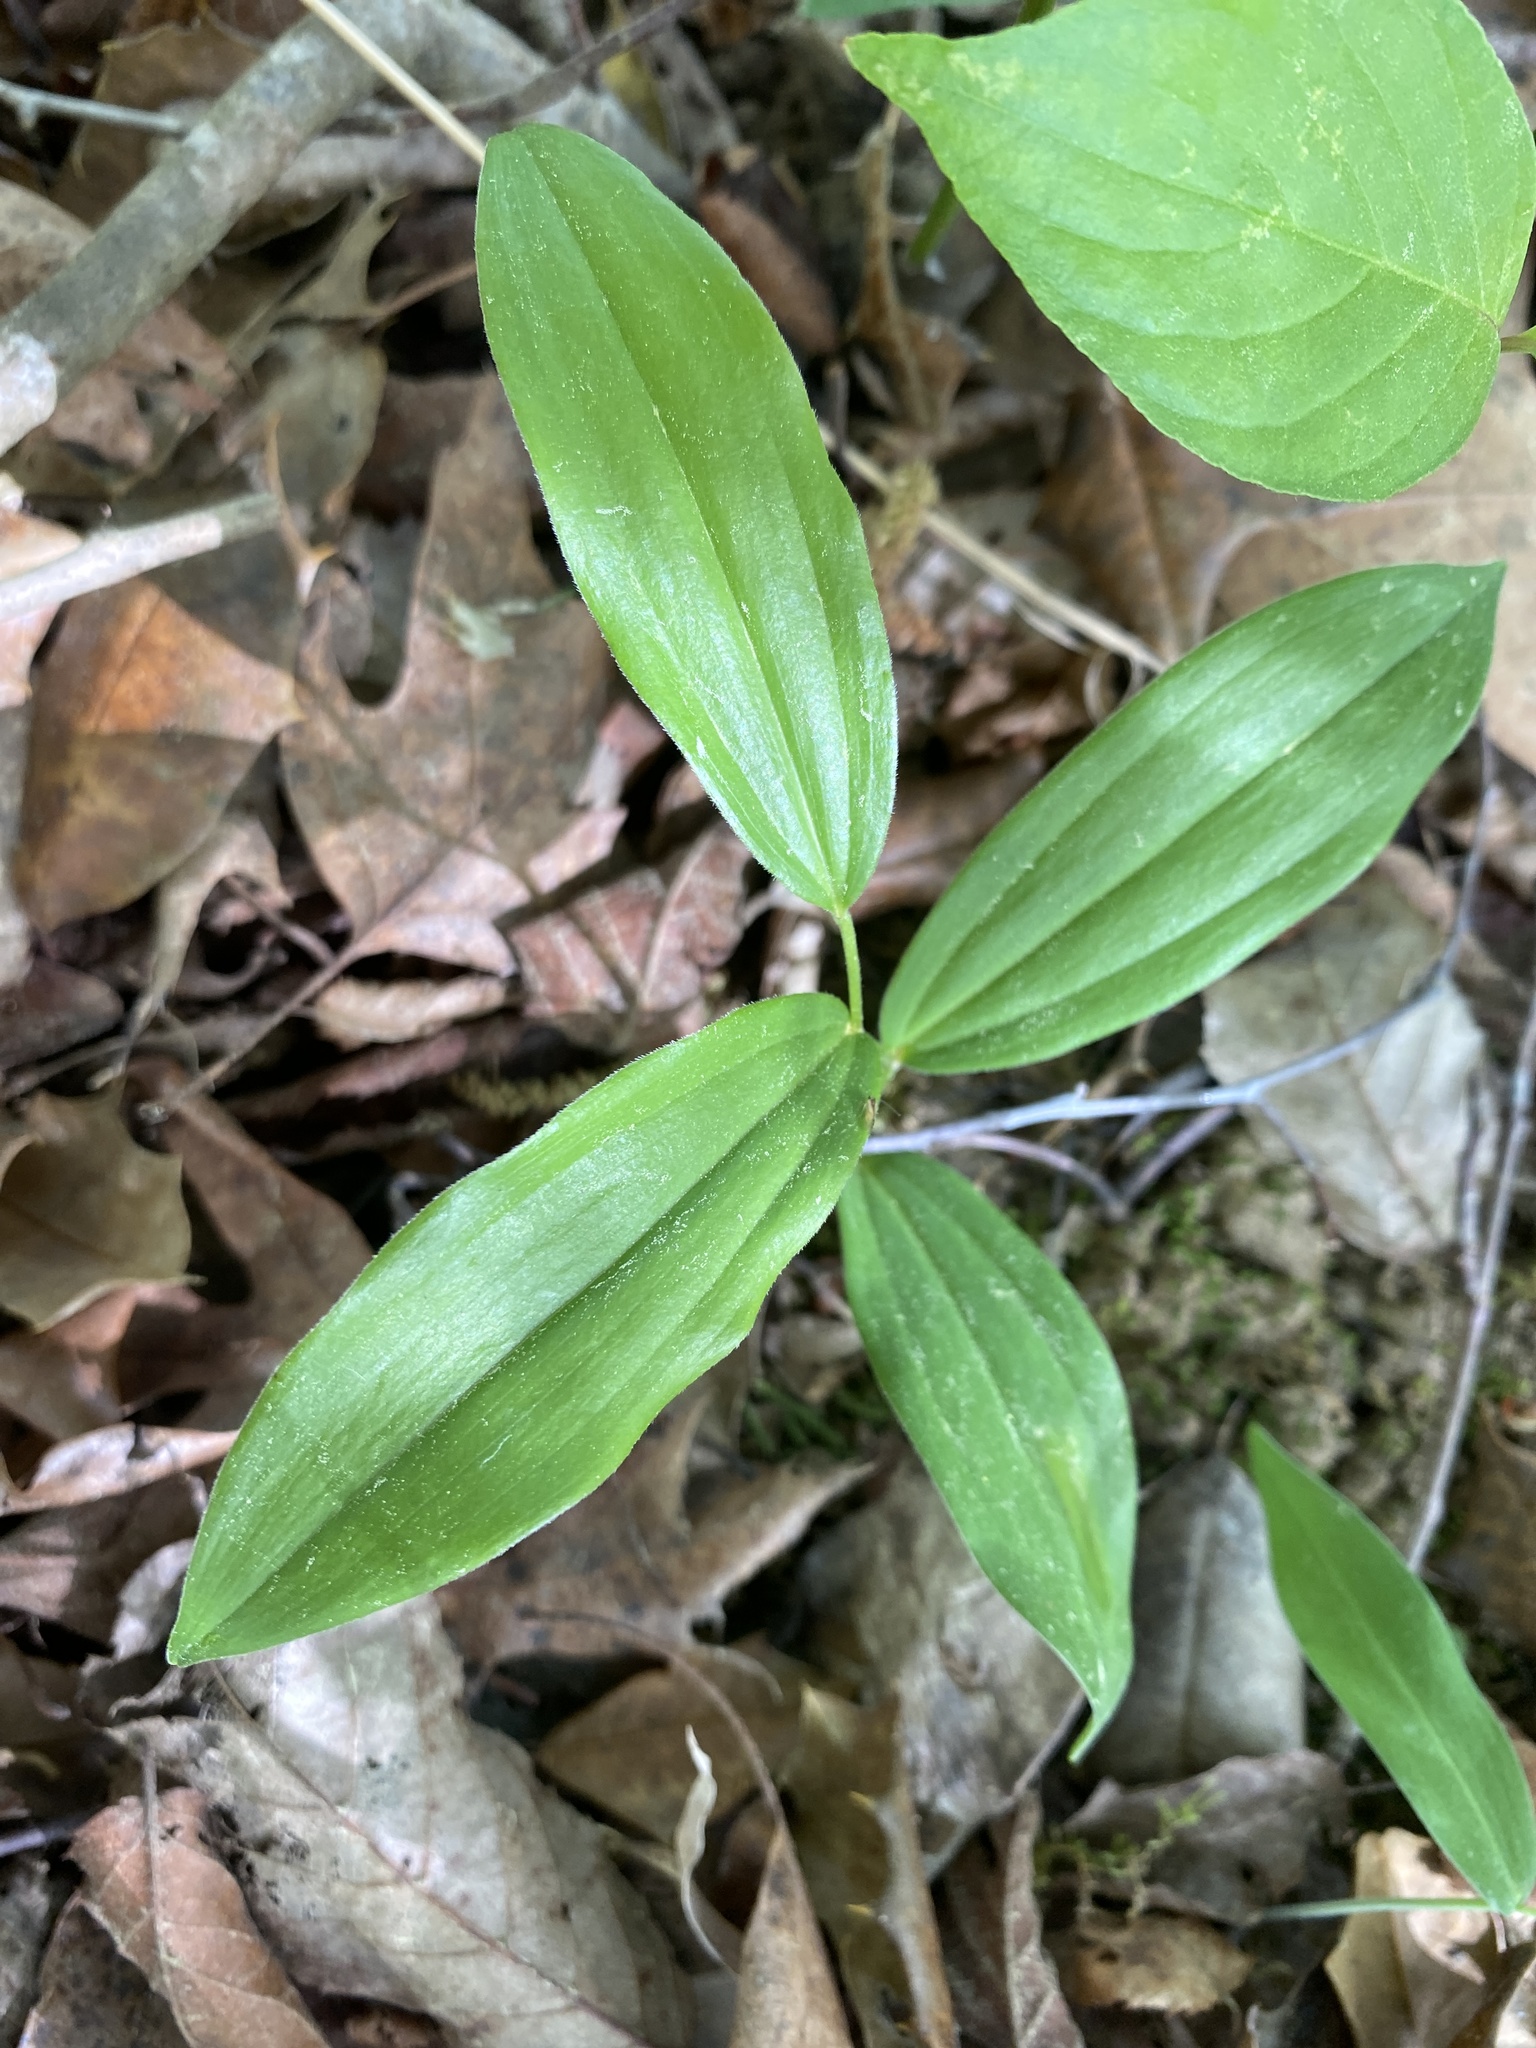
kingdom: Plantae
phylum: Tracheophyta
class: Liliopsida
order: Asparagales
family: Asparagaceae
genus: Maianthemum
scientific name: Maianthemum racemosum
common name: False spikenard
